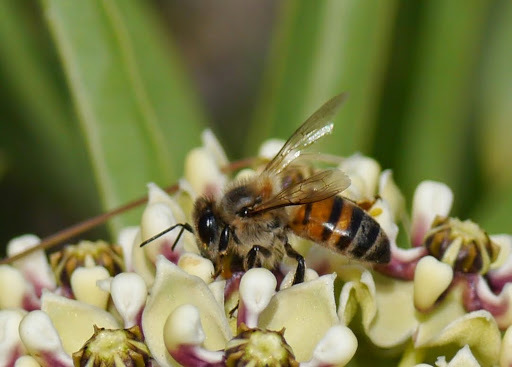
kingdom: Animalia
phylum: Arthropoda
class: Insecta
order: Hymenoptera
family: Apidae
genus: Apis
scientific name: Apis mellifera
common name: Honey bee
